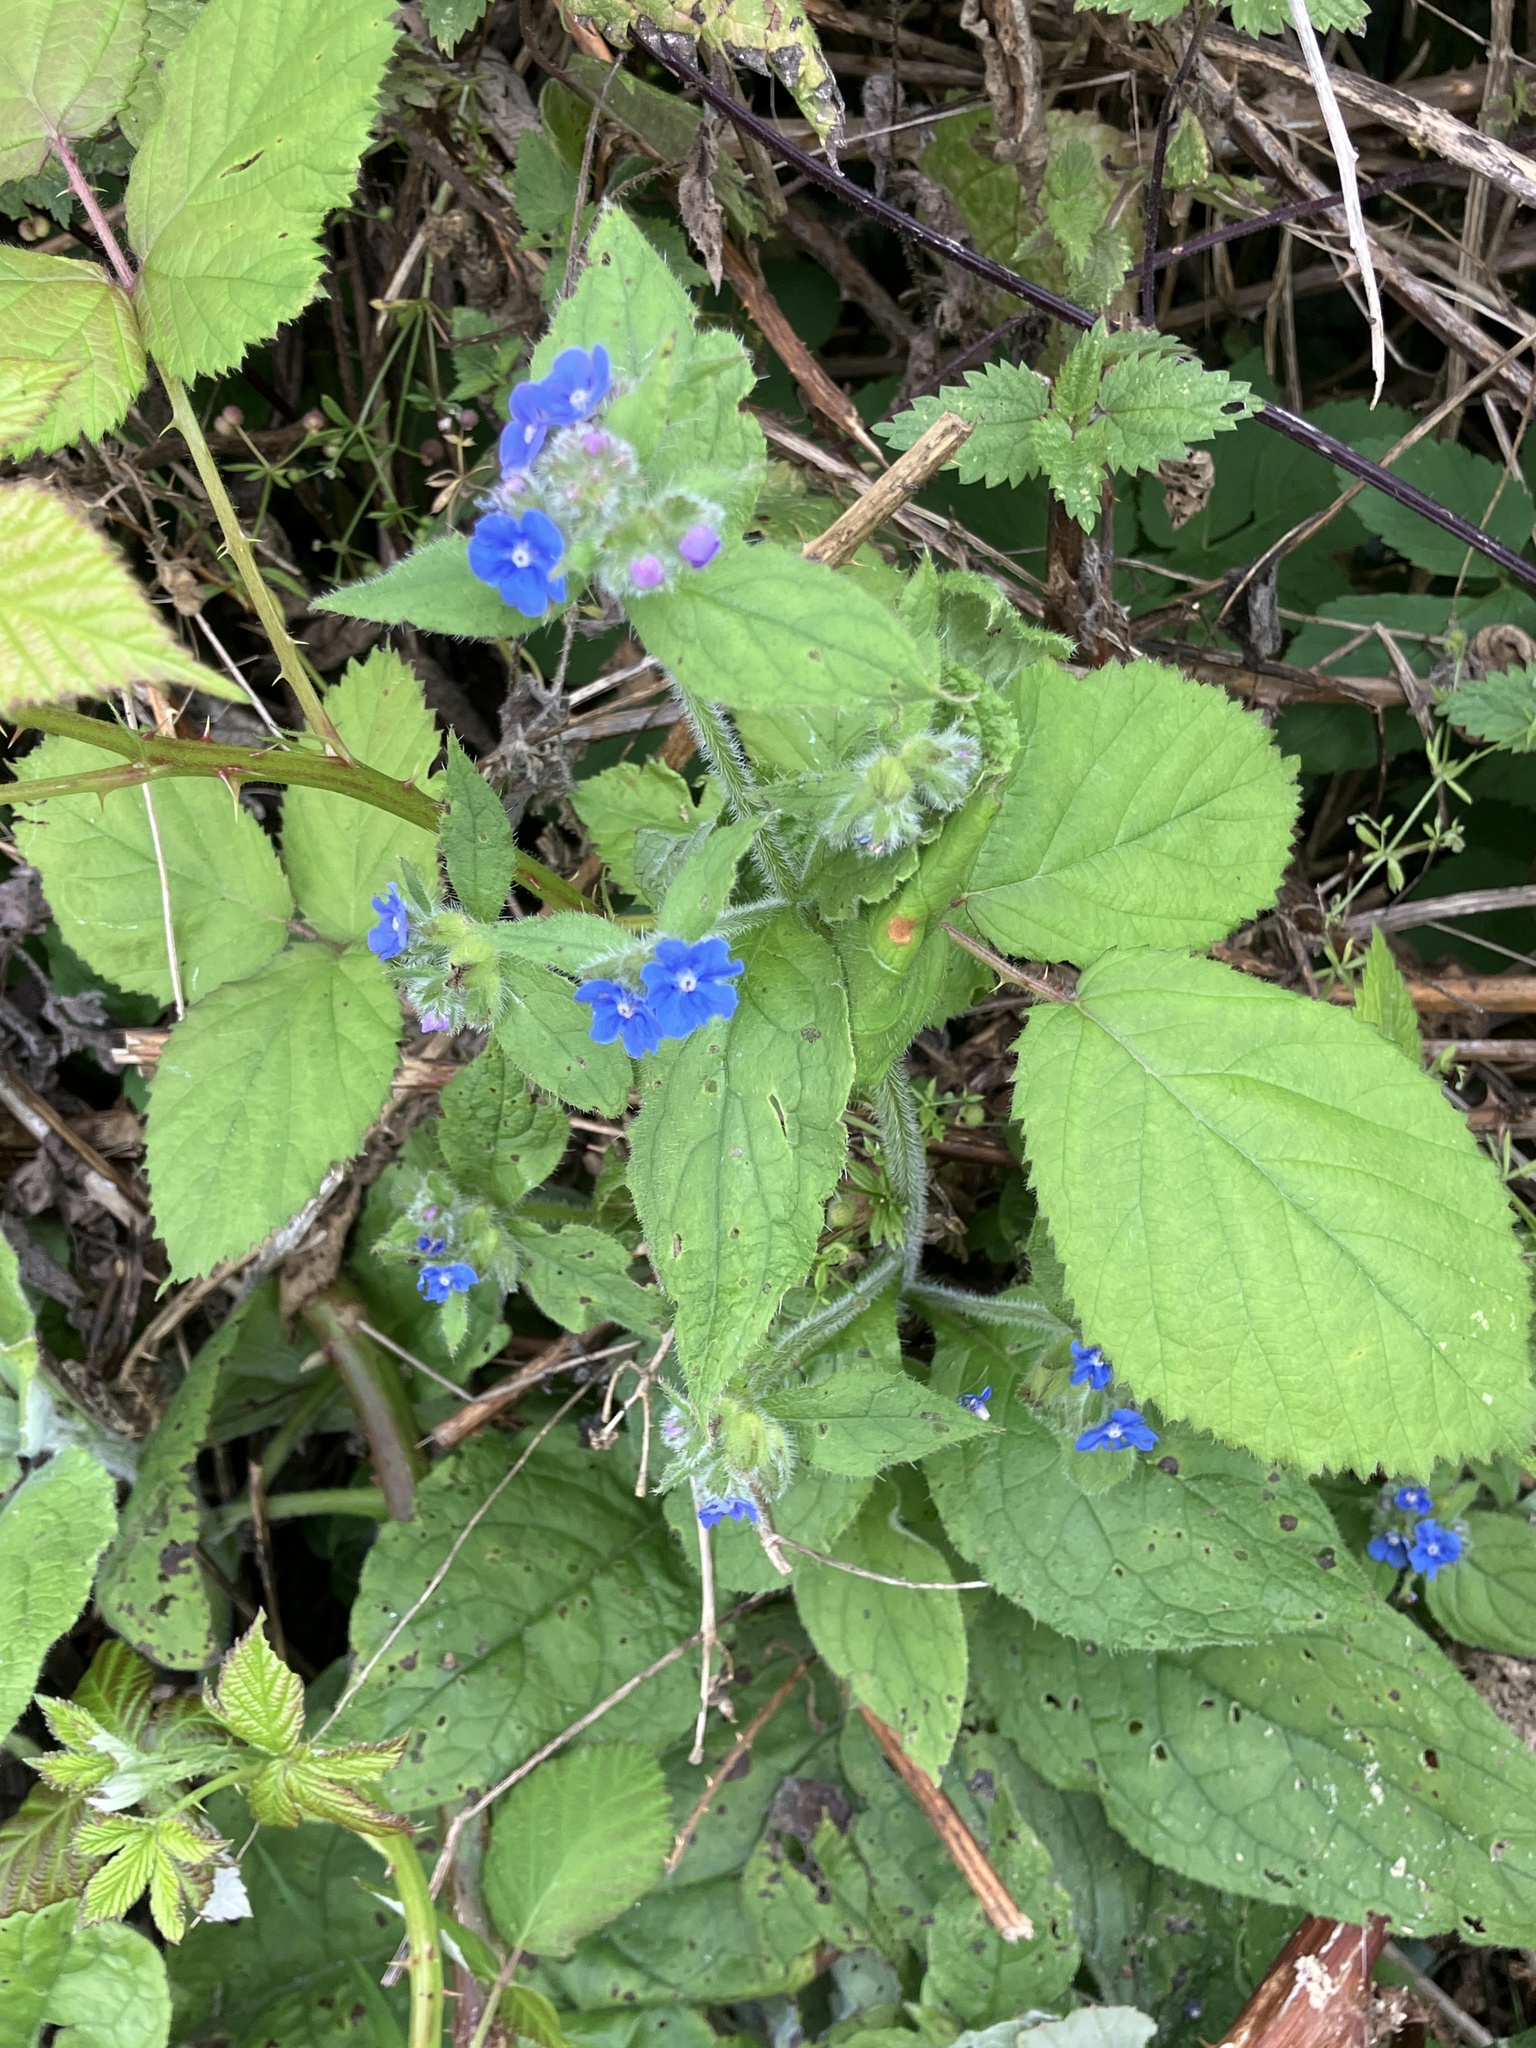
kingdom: Plantae
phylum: Tracheophyta
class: Magnoliopsida
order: Boraginales
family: Boraginaceae
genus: Pentaglottis
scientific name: Pentaglottis sempervirens
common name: Green alkanet
